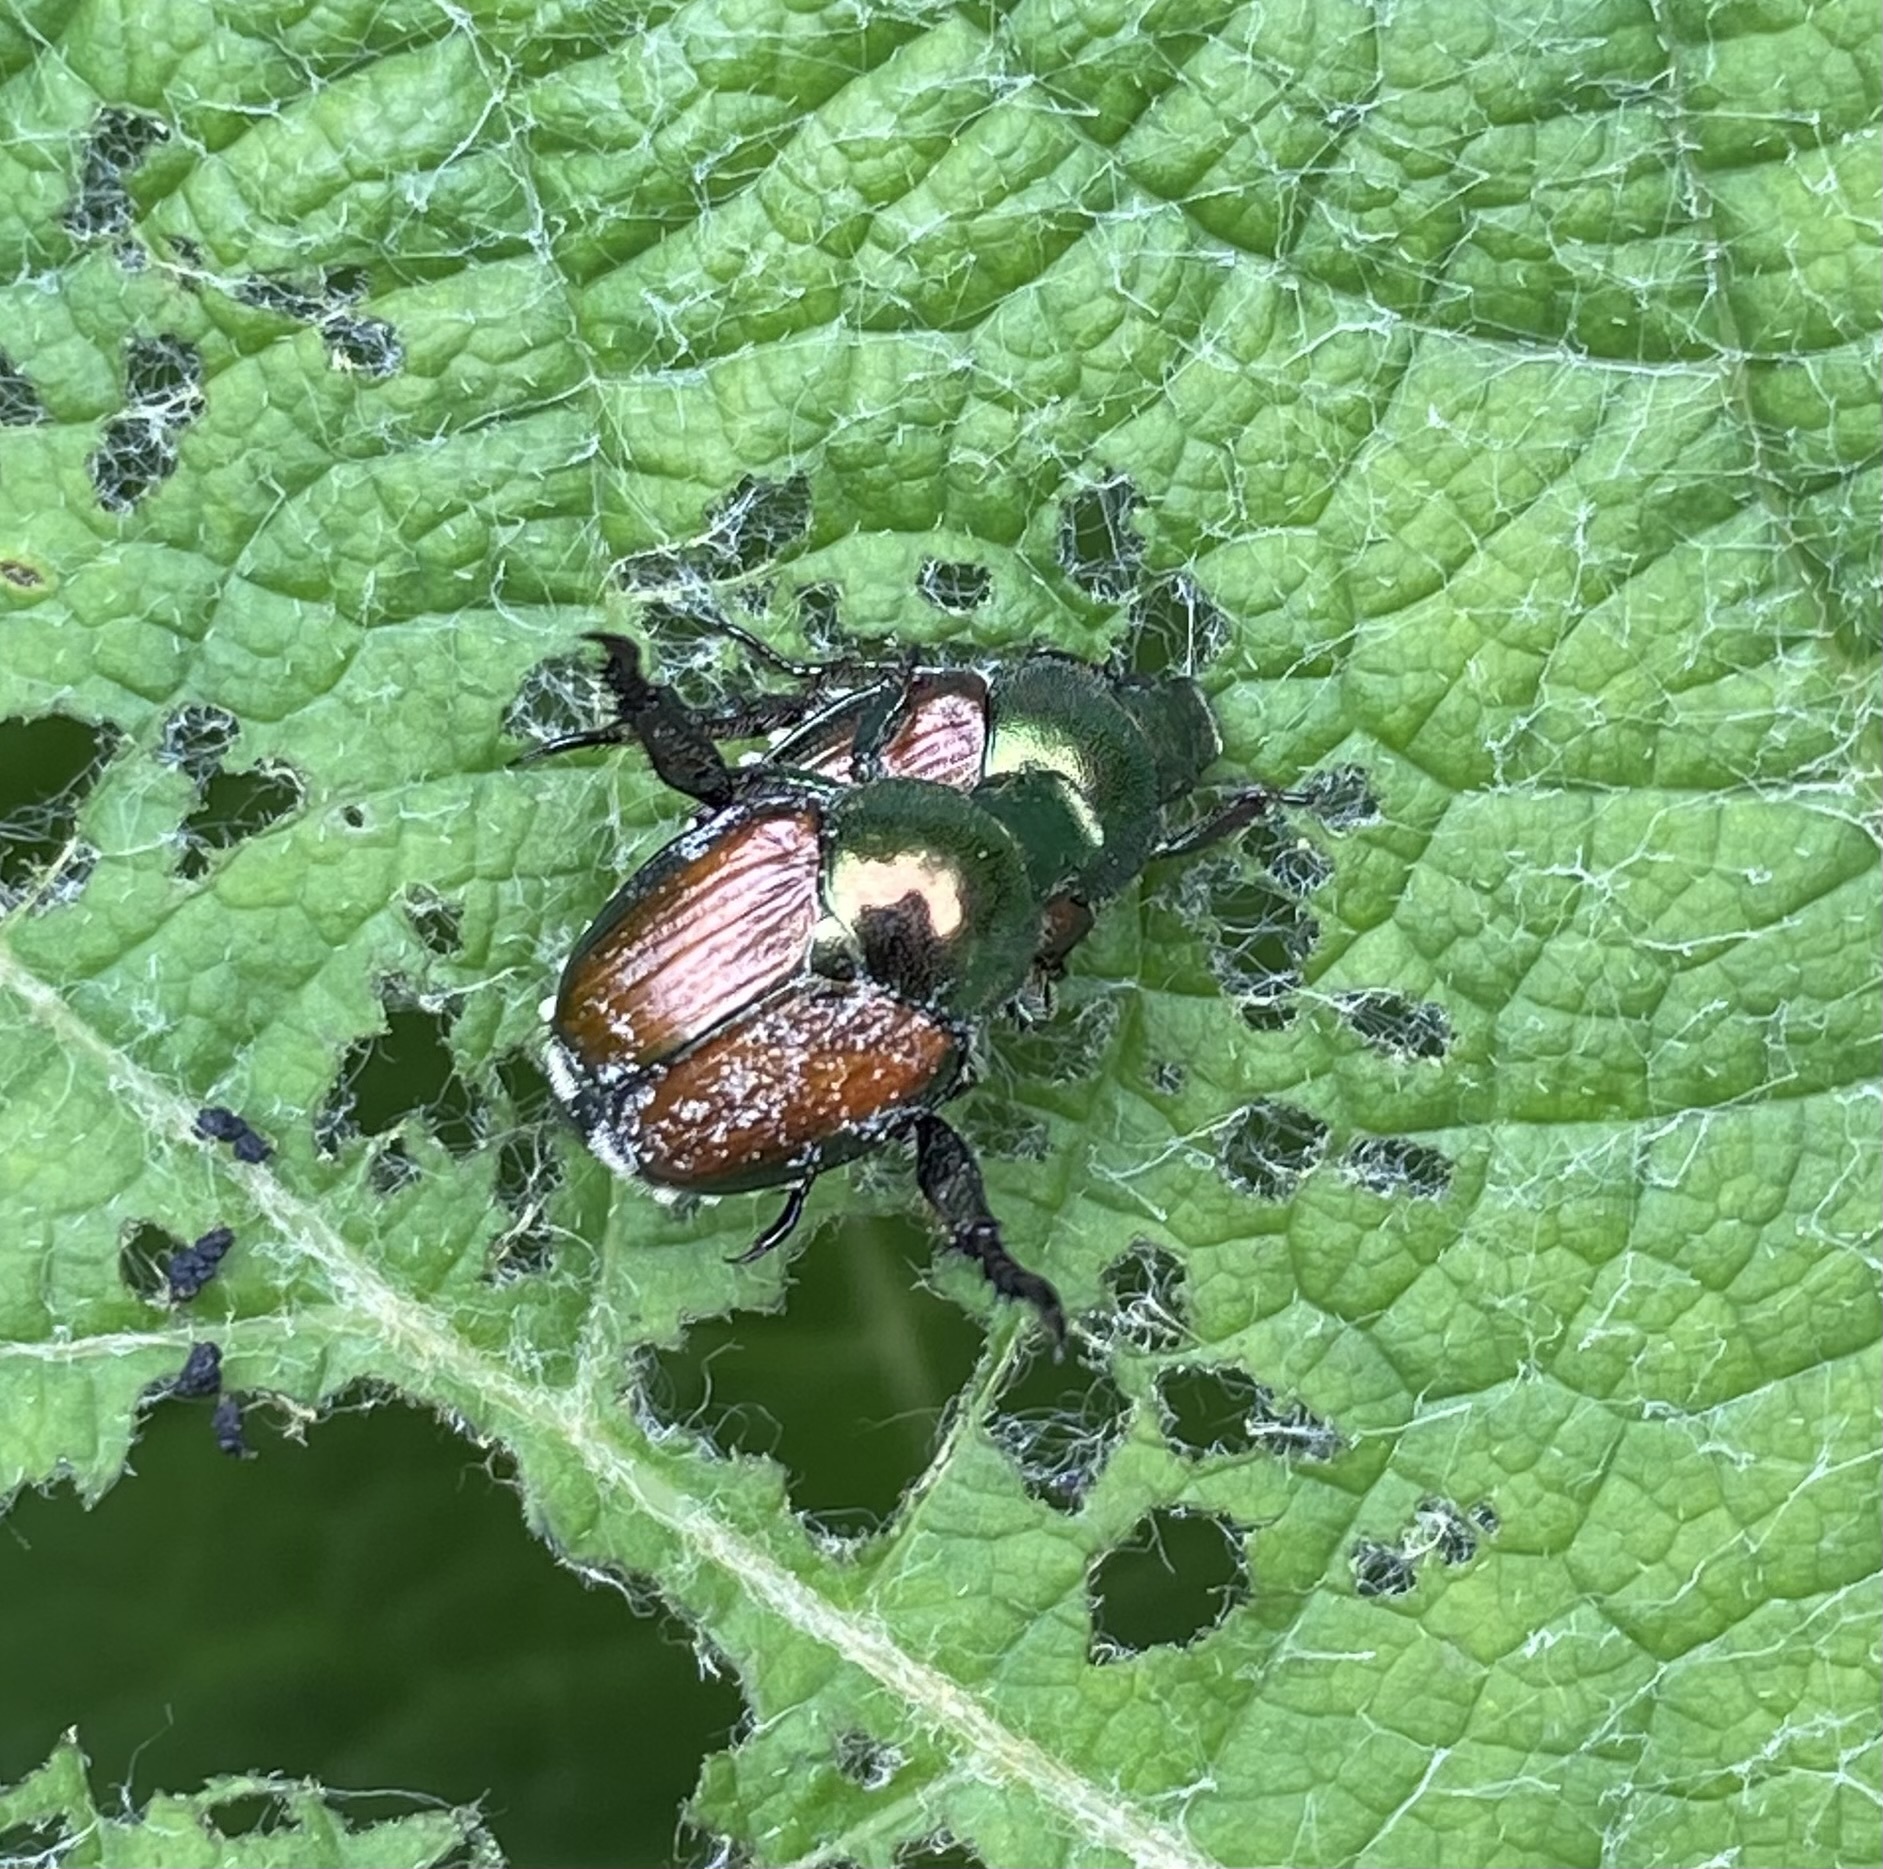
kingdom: Animalia
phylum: Arthropoda
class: Insecta
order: Coleoptera
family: Scarabaeidae
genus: Popillia
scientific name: Popillia japonica
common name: Japanese beetle
